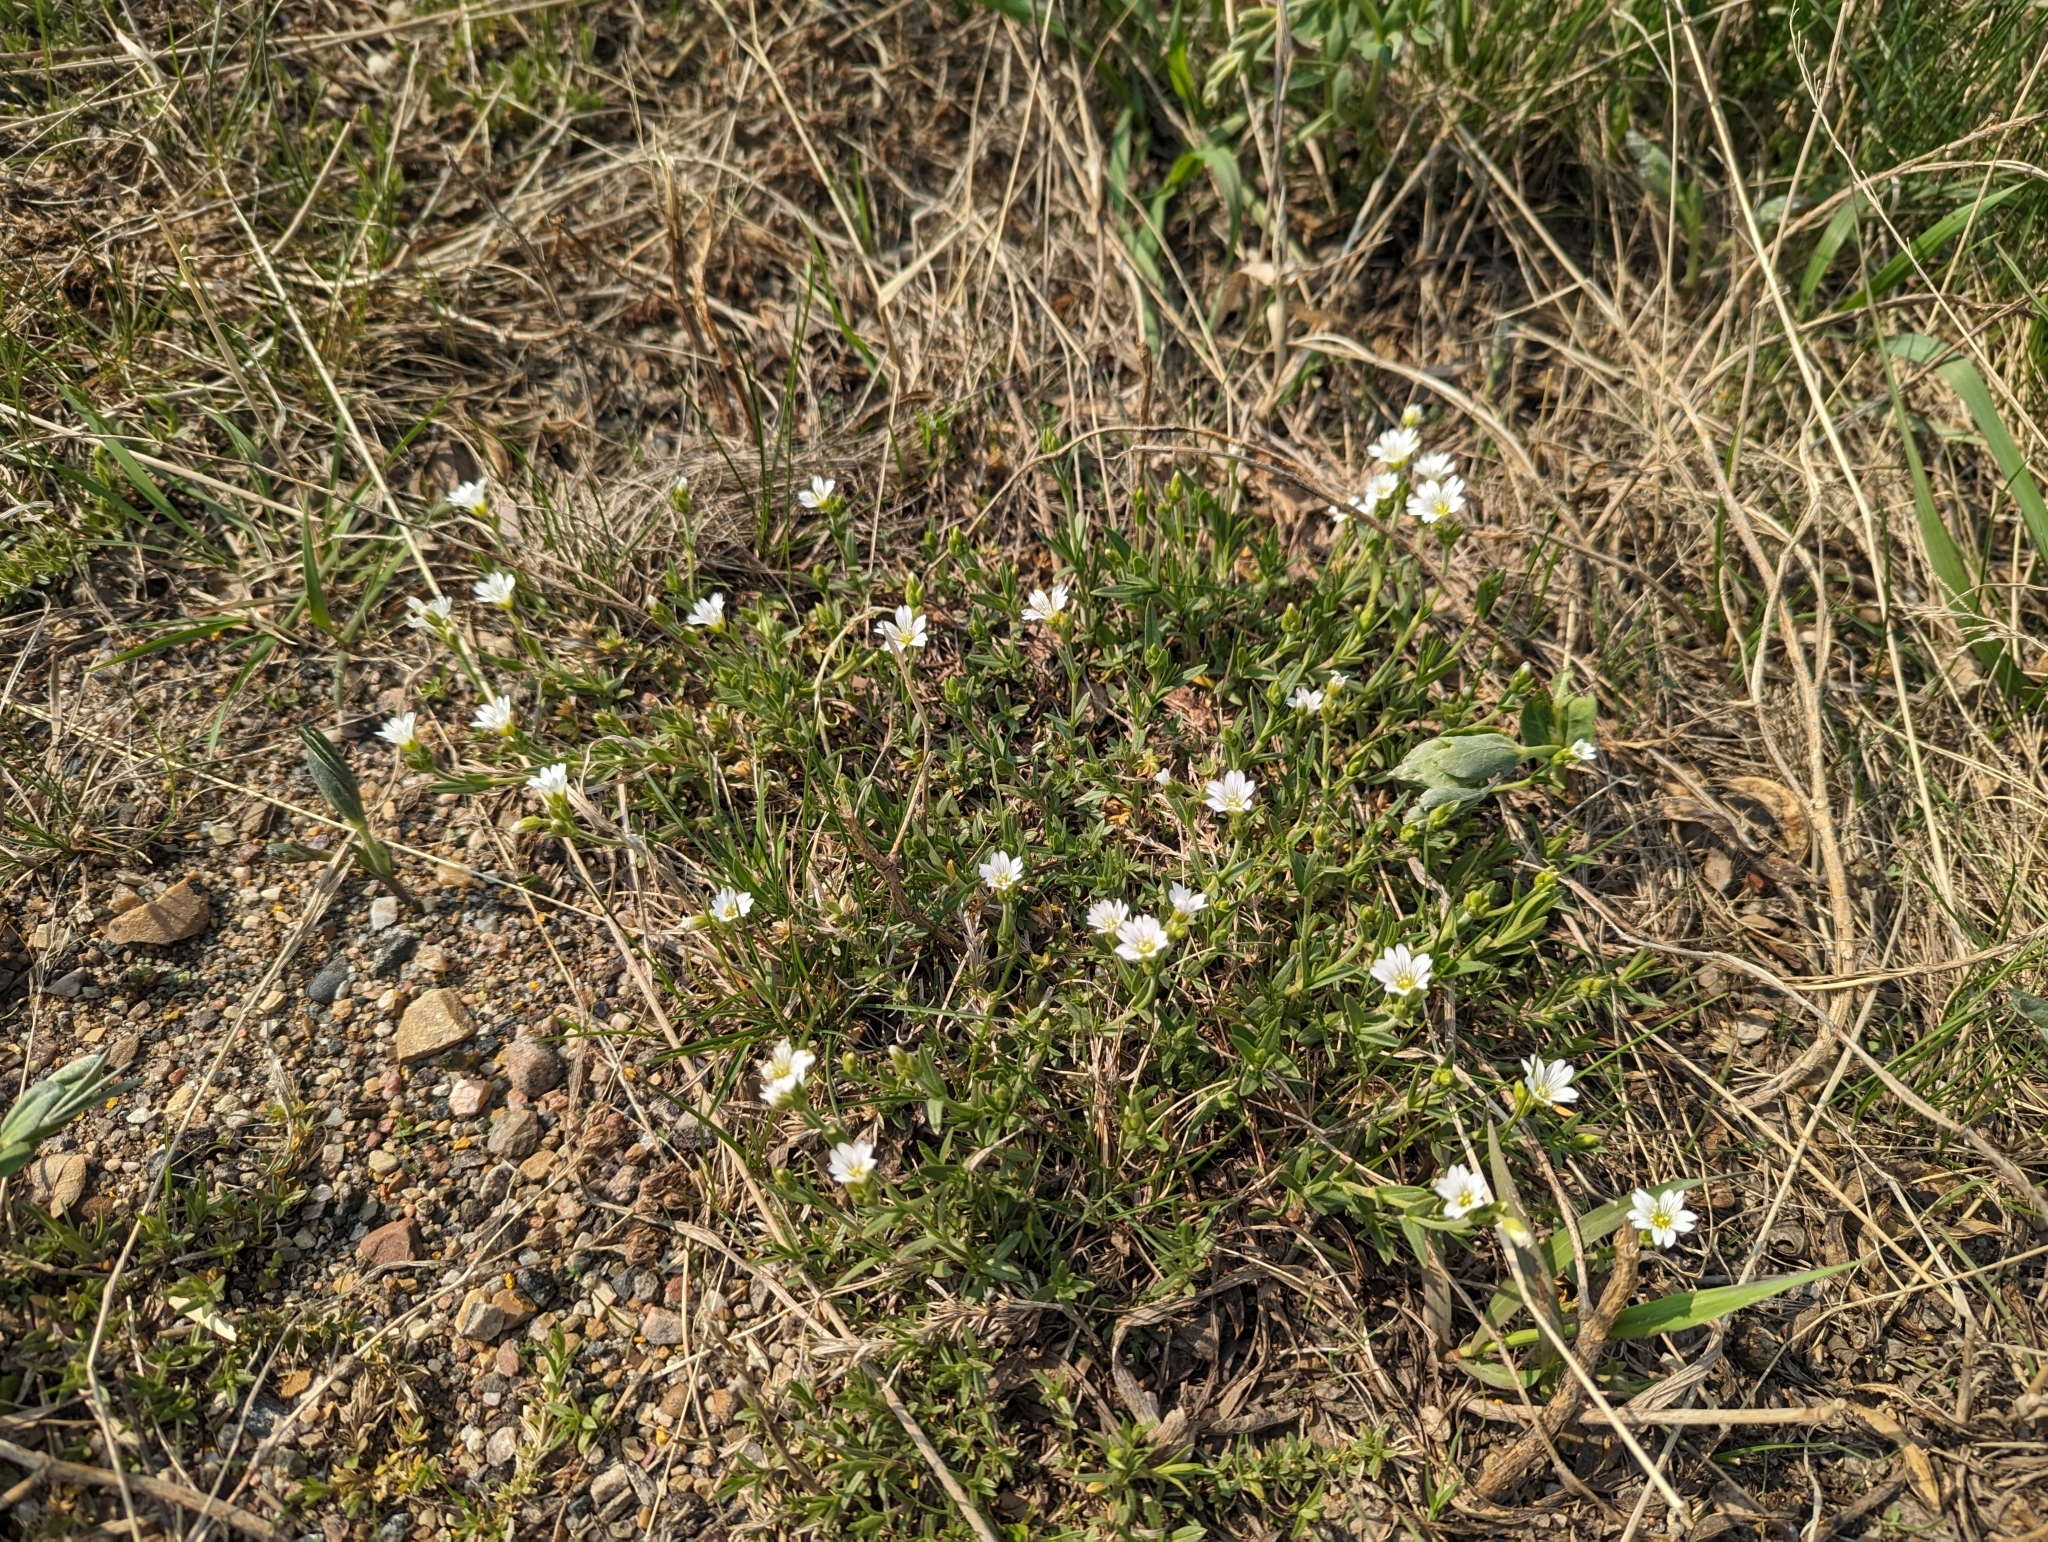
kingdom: Plantae
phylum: Tracheophyta
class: Magnoliopsida
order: Caryophyllales
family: Caryophyllaceae
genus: Cerastium
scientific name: Cerastium arvense
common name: Field mouse-ear
